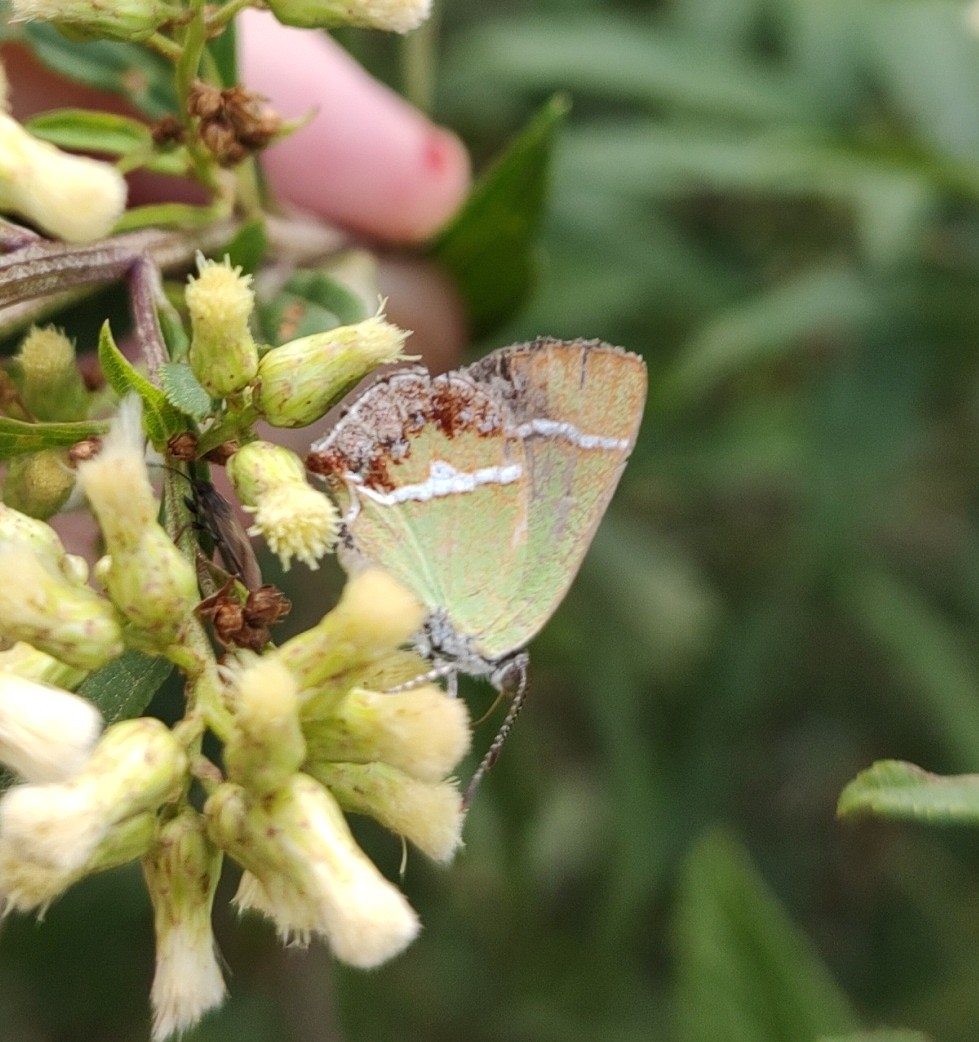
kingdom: Animalia
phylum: Arthropoda
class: Insecta
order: Lepidoptera
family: Lycaenidae
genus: Chlorostrymon
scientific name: Chlorostrymon simaethis
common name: Silver-banded hairstreak
